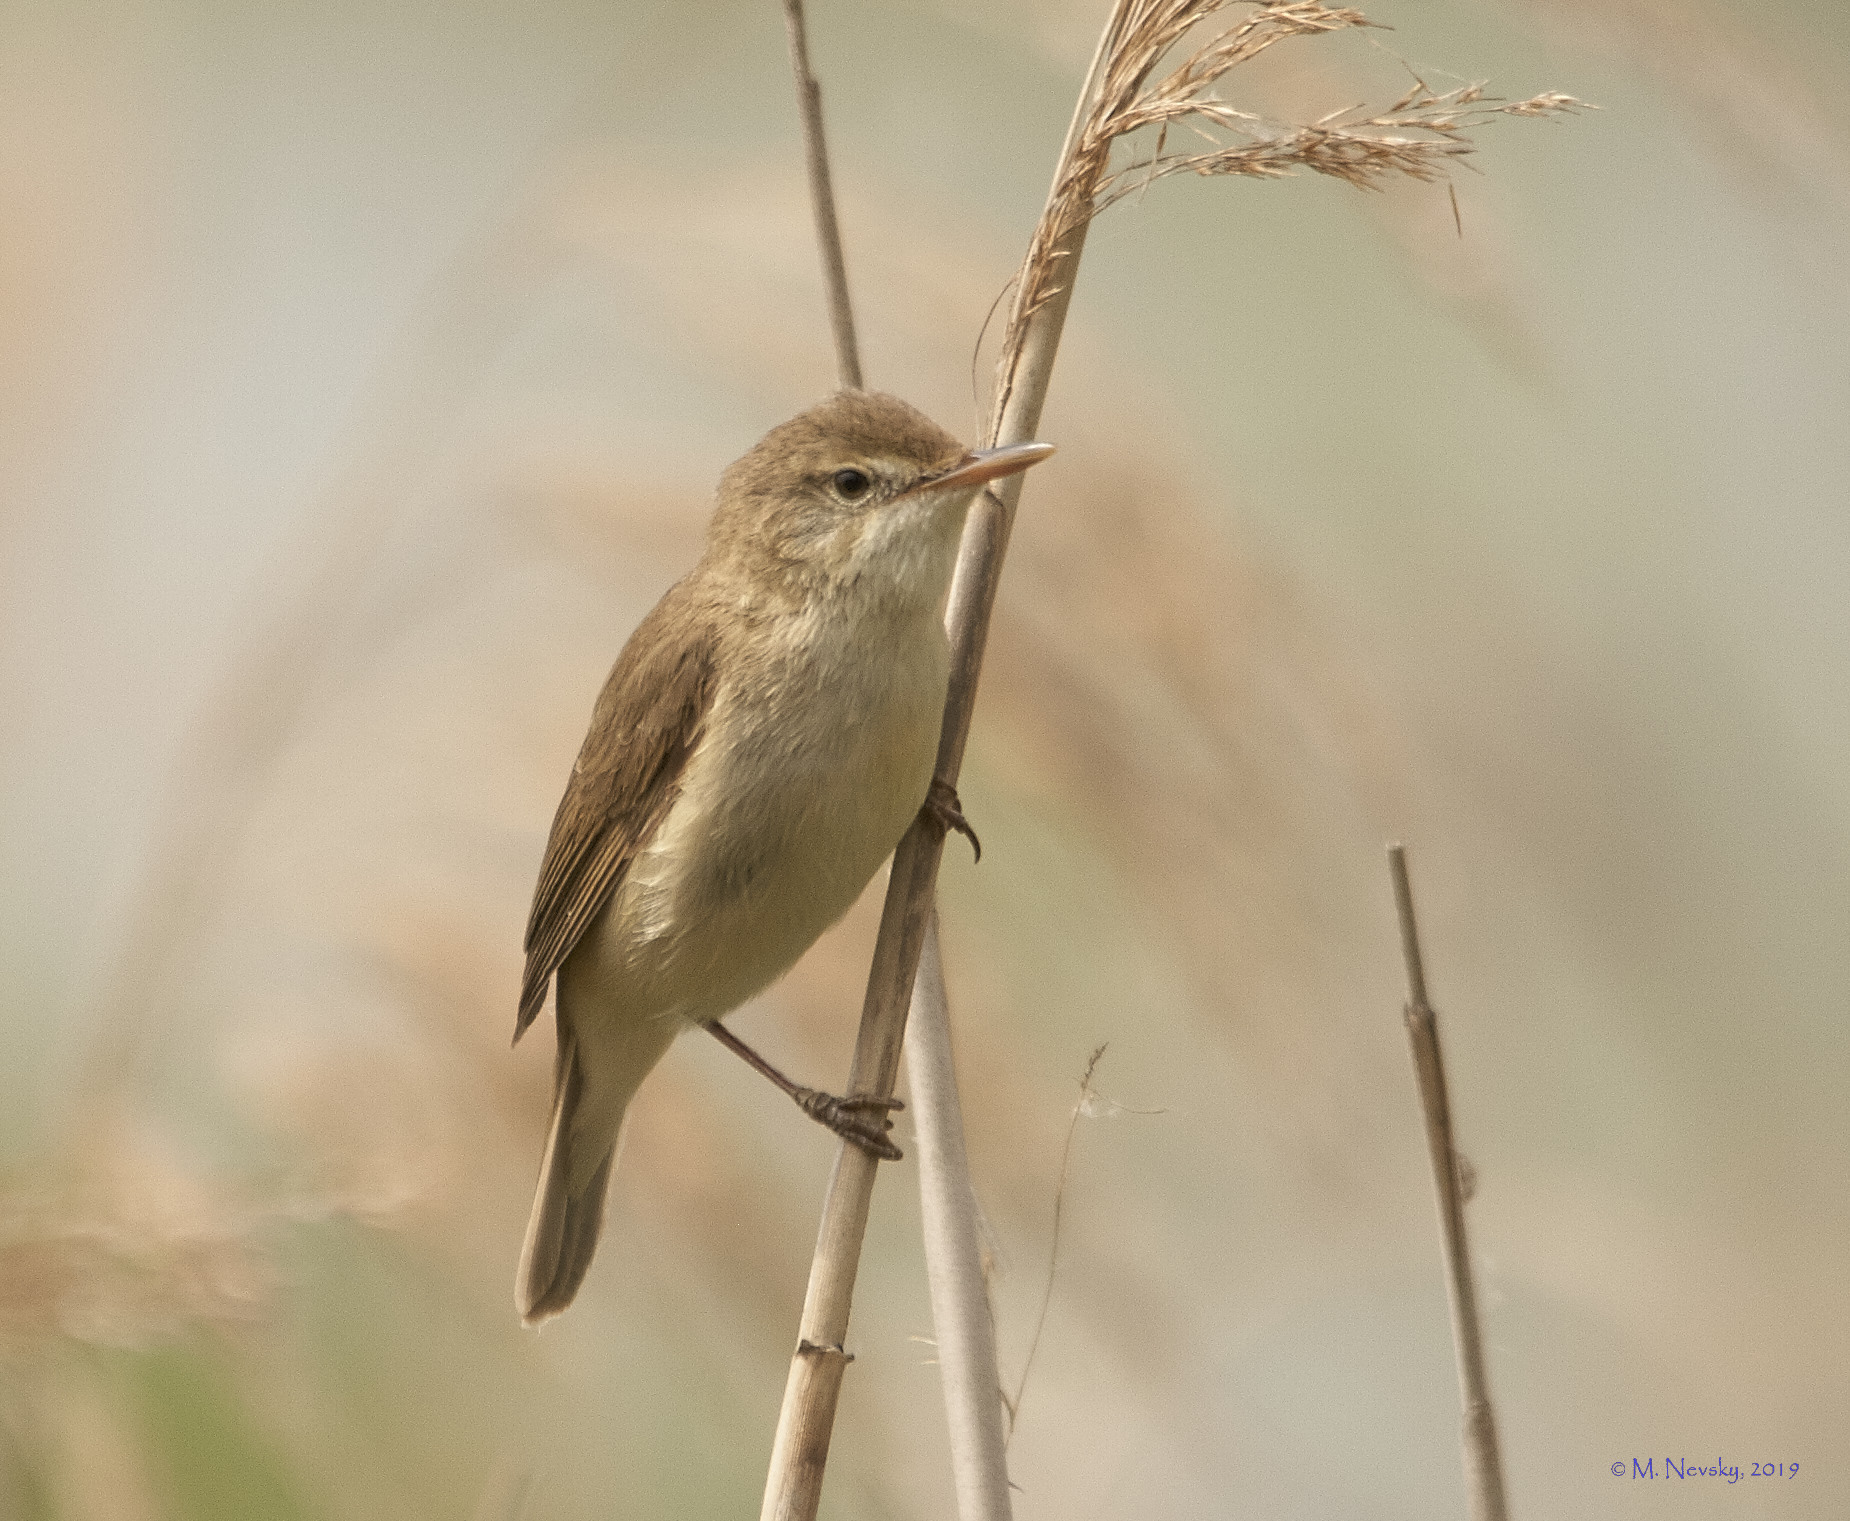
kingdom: Animalia
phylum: Chordata
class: Aves
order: Passeriformes
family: Acrocephalidae
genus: Acrocephalus
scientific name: Acrocephalus palustris
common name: Marsh warbler
